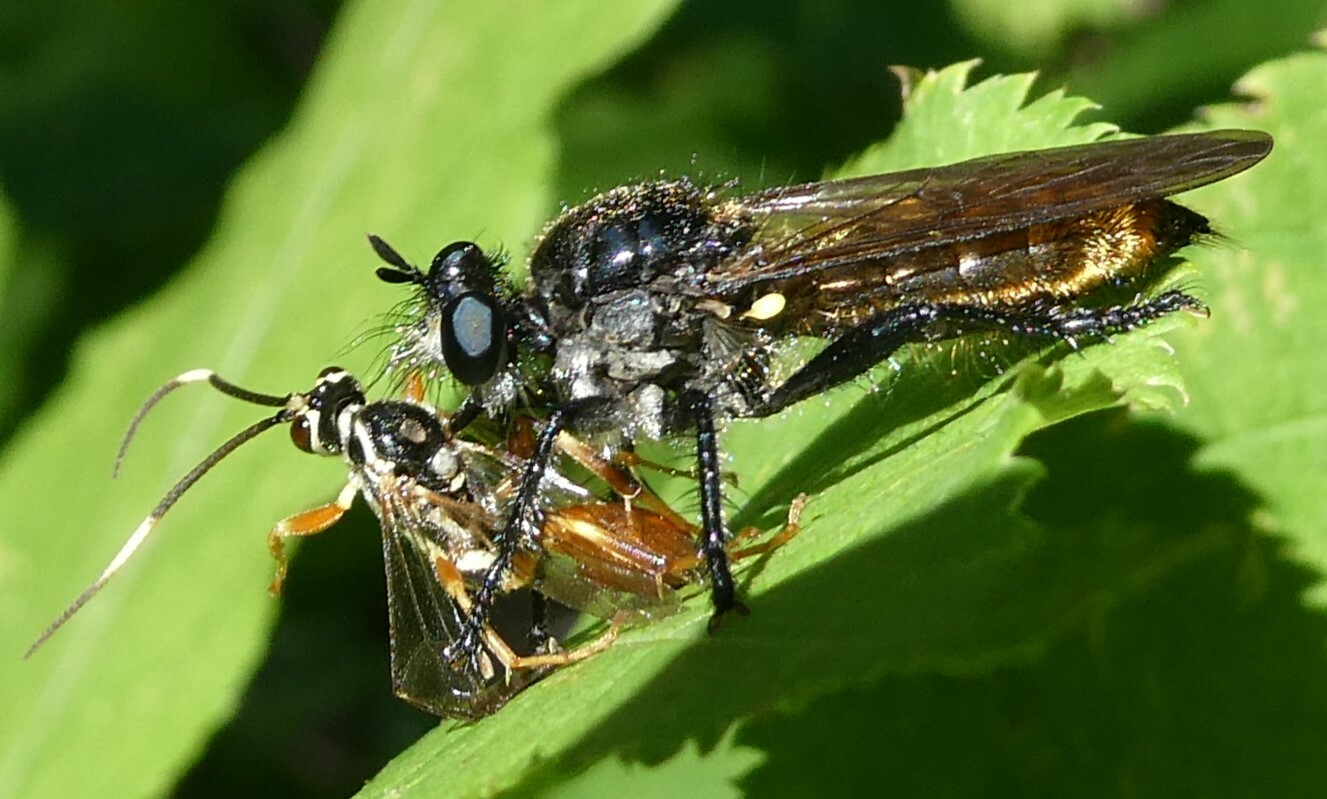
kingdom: Animalia
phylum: Arthropoda
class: Insecta
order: Diptera
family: Asilidae
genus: Laphria
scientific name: Laphria
